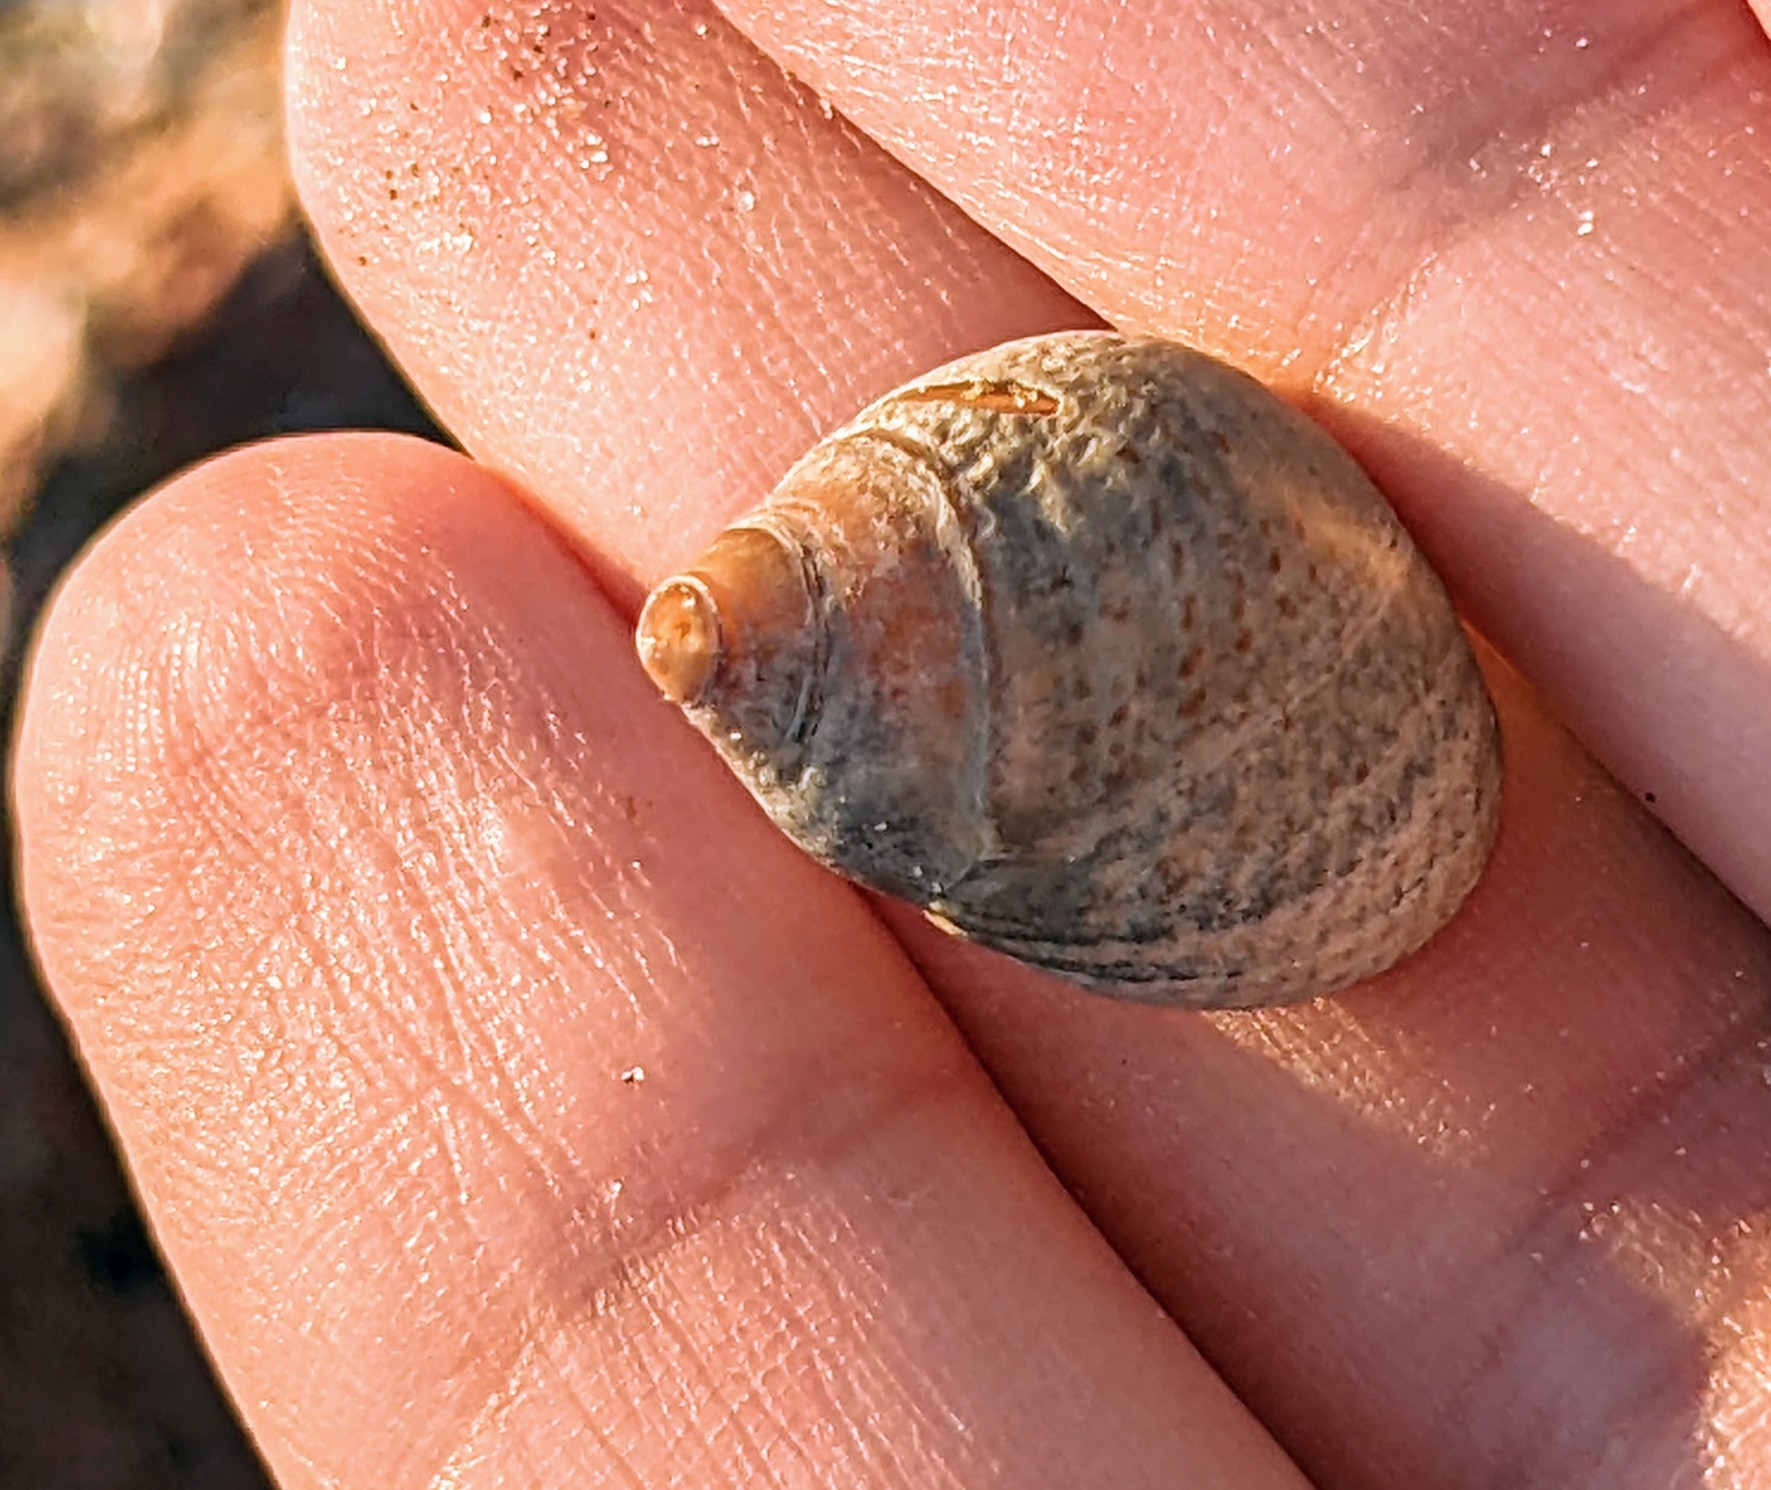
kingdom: Animalia
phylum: Mollusca
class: Gastropoda
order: Littorinimorpha
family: Littorinidae
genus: Littoraria
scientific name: Littoraria irrorata
